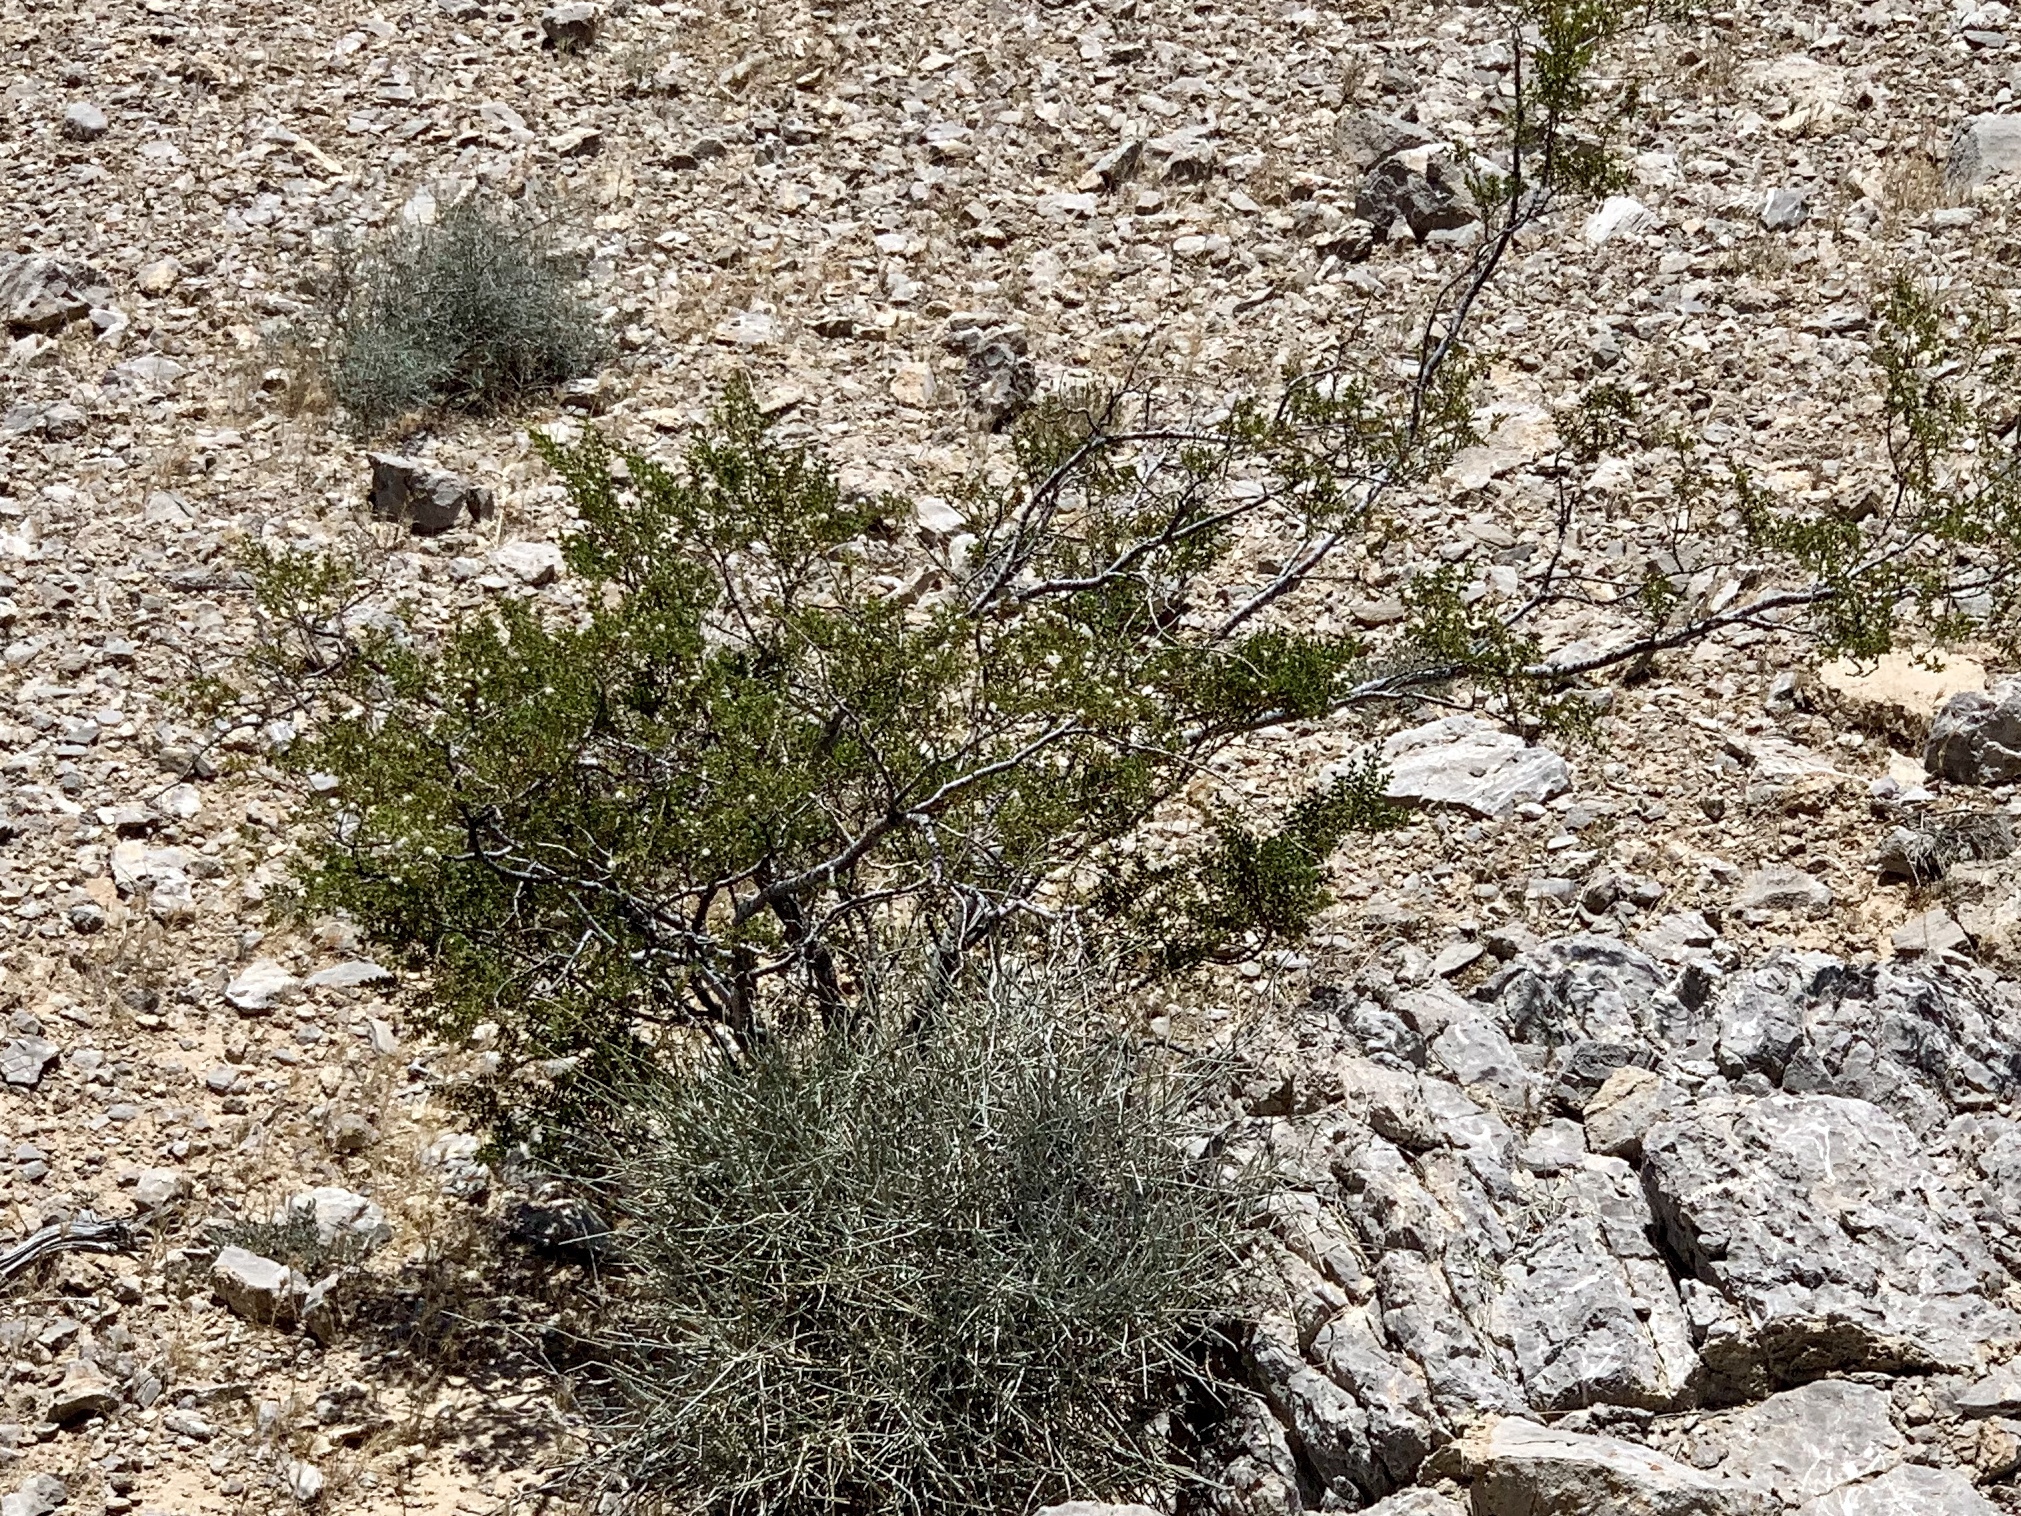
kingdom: Plantae
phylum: Tracheophyta
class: Magnoliopsida
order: Zygophyllales
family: Zygophyllaceae
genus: Larrea
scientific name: Larrea tridentata
